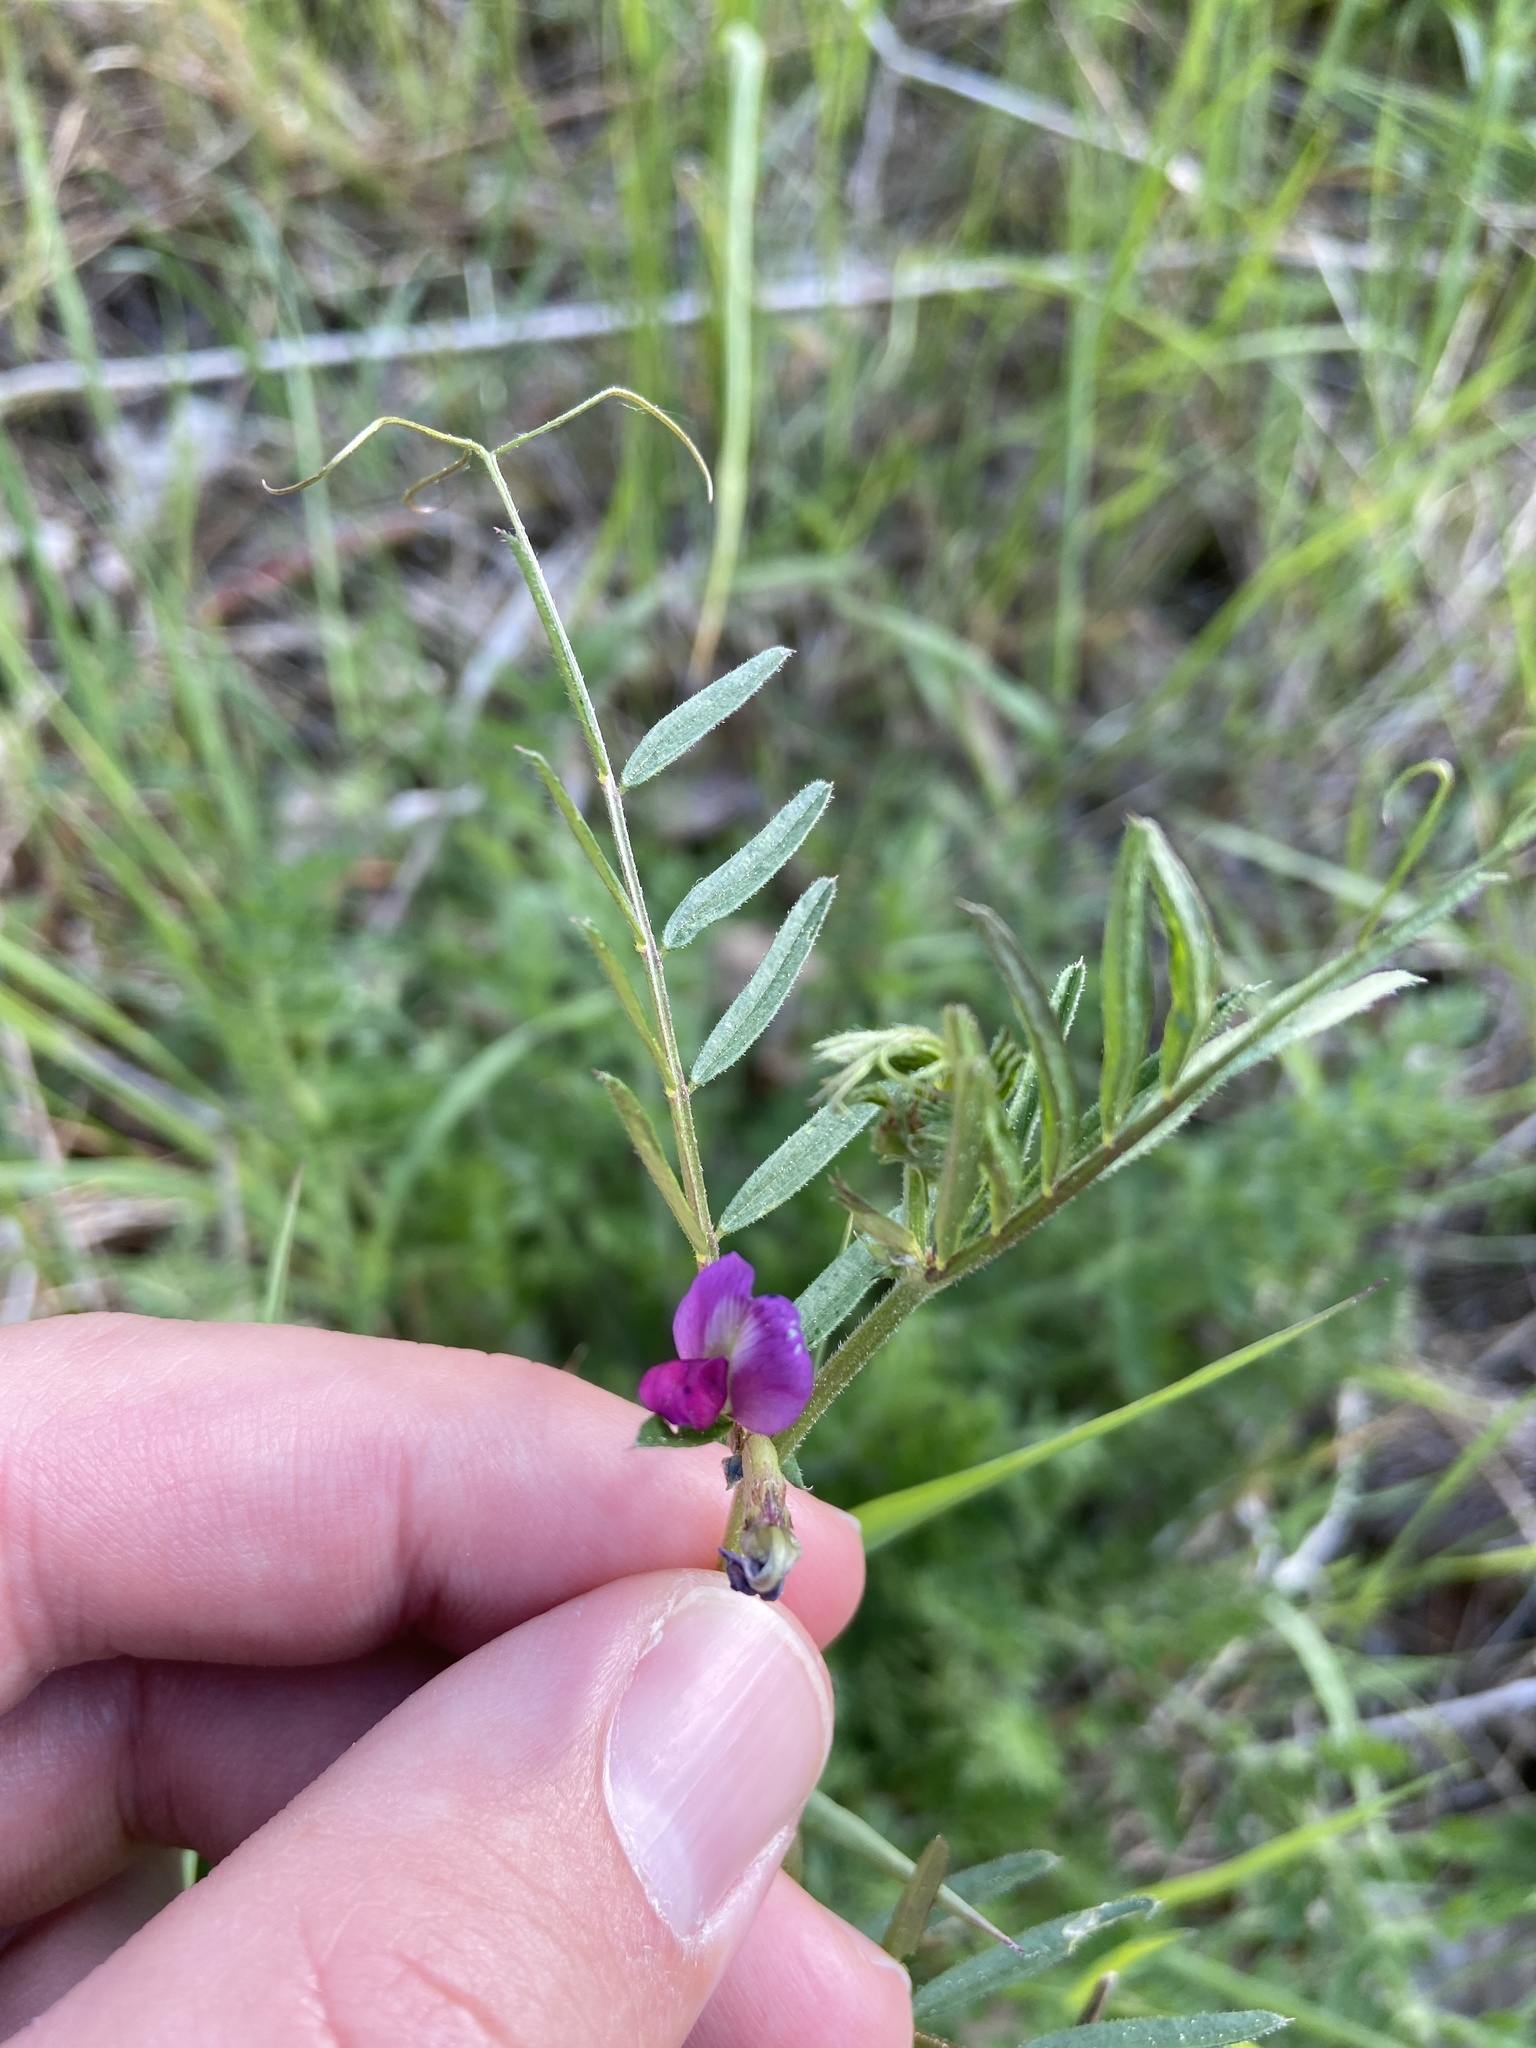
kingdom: Plantae
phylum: Tracheophyta
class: Magnoliopsida
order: Fabales
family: Fabaceae
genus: Vicia
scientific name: Vicia sativa
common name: Garden vetch
